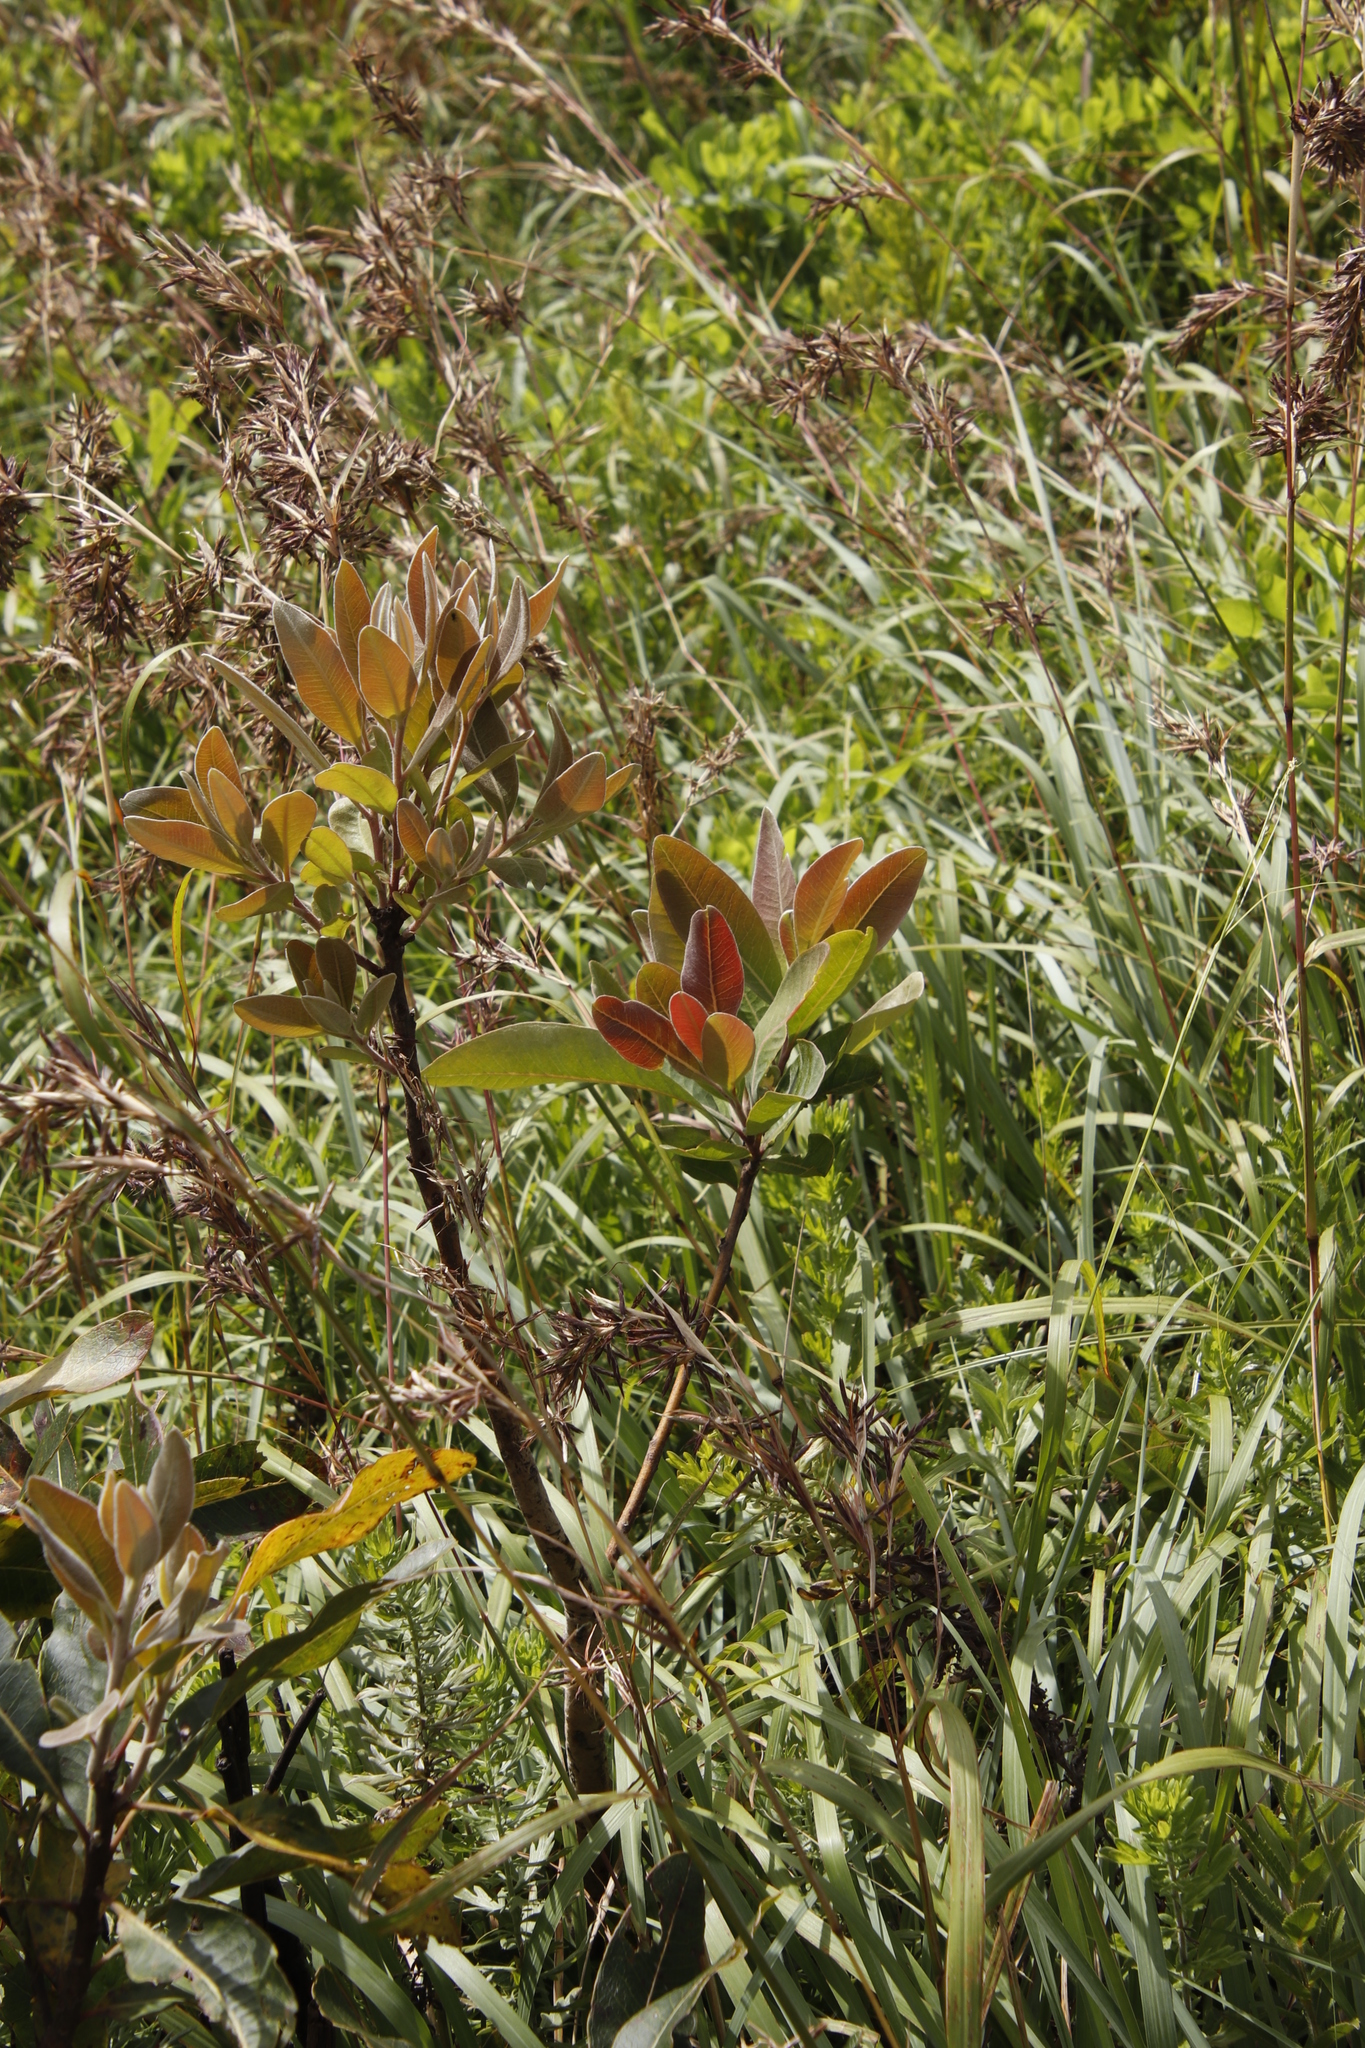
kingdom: Plantae
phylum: Tracheophyta
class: Magnoliopsida
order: Proteales
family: Proteaceae
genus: Faurea
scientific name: Faurea rochetiana
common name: Broad-leaved beech
